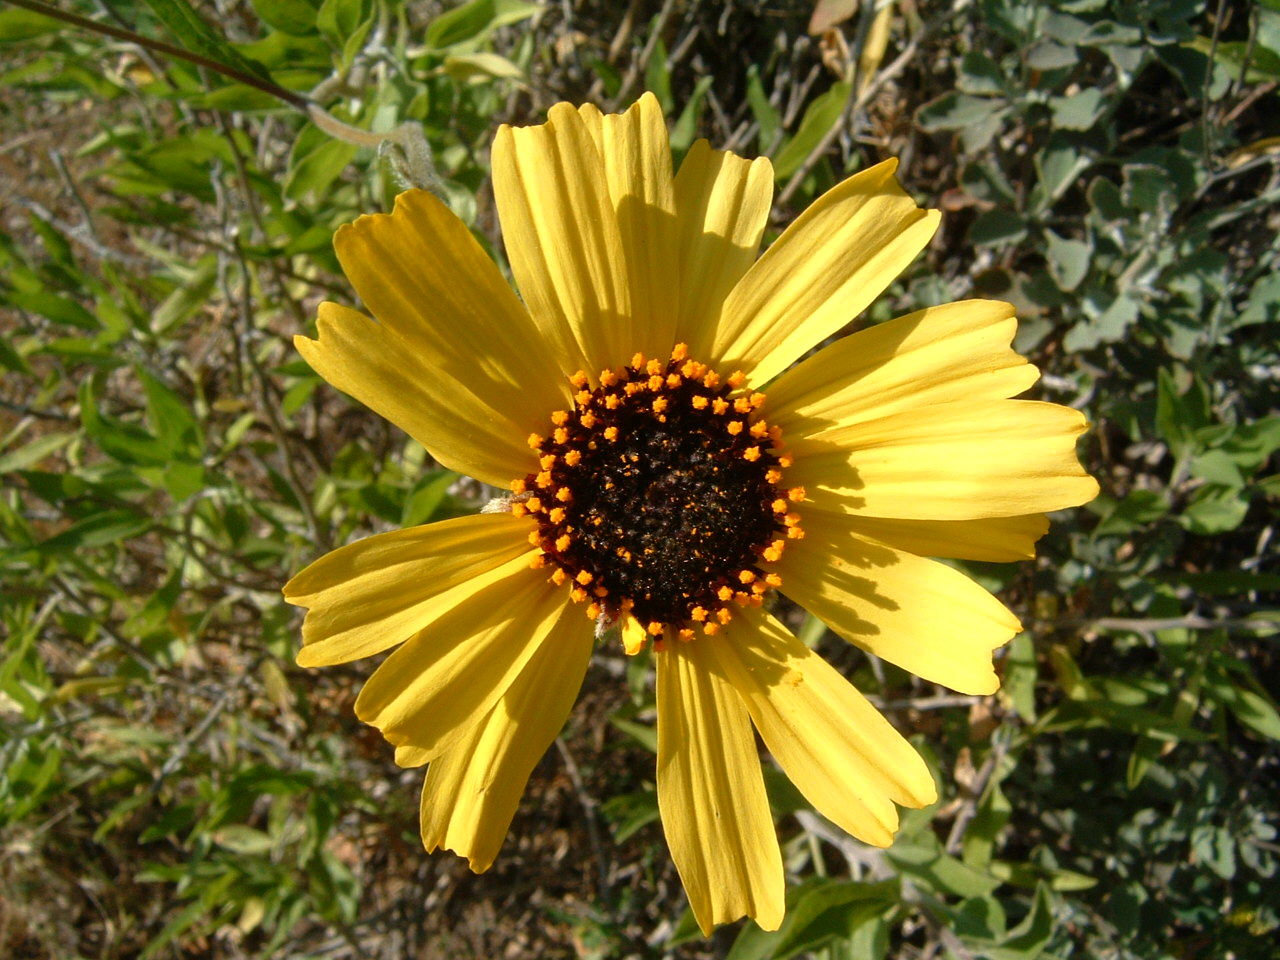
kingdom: Plantae
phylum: Tracheophyta
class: Magnoliopsida
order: Asterales
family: Asteraceae
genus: Encelia
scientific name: Encelia californica
